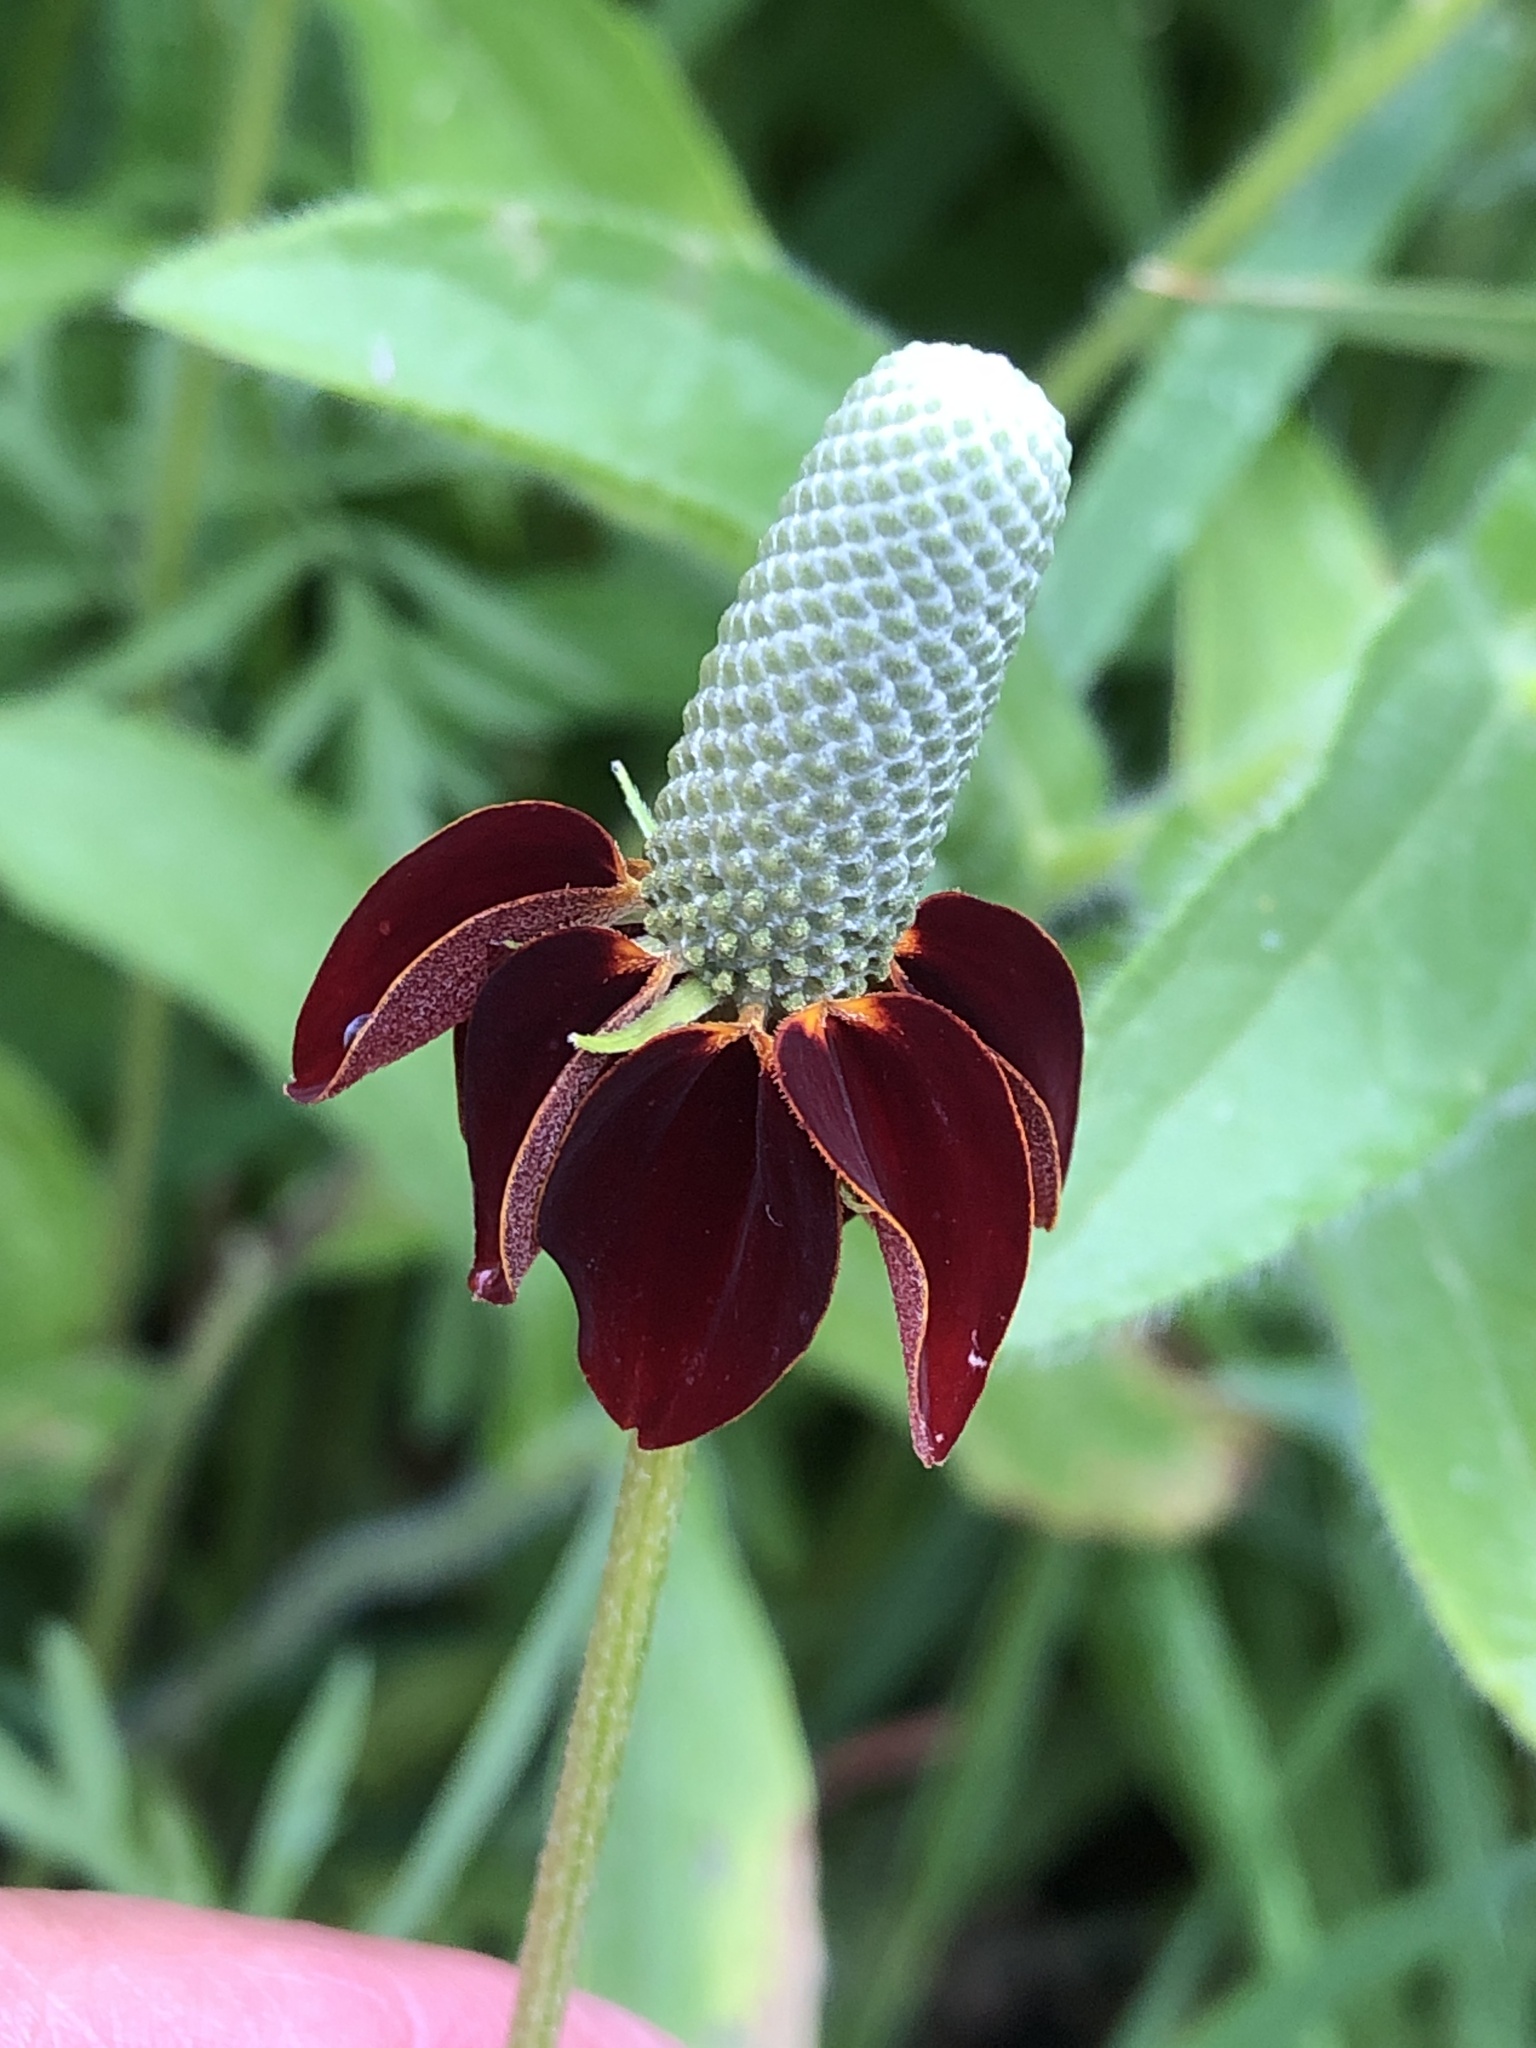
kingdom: Plantae
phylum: Tracheophyta
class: Magnoliopsida
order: Asterales
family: Asteraceae
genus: Ratibida
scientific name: Ratibida columnifera
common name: Prairie coneflower
